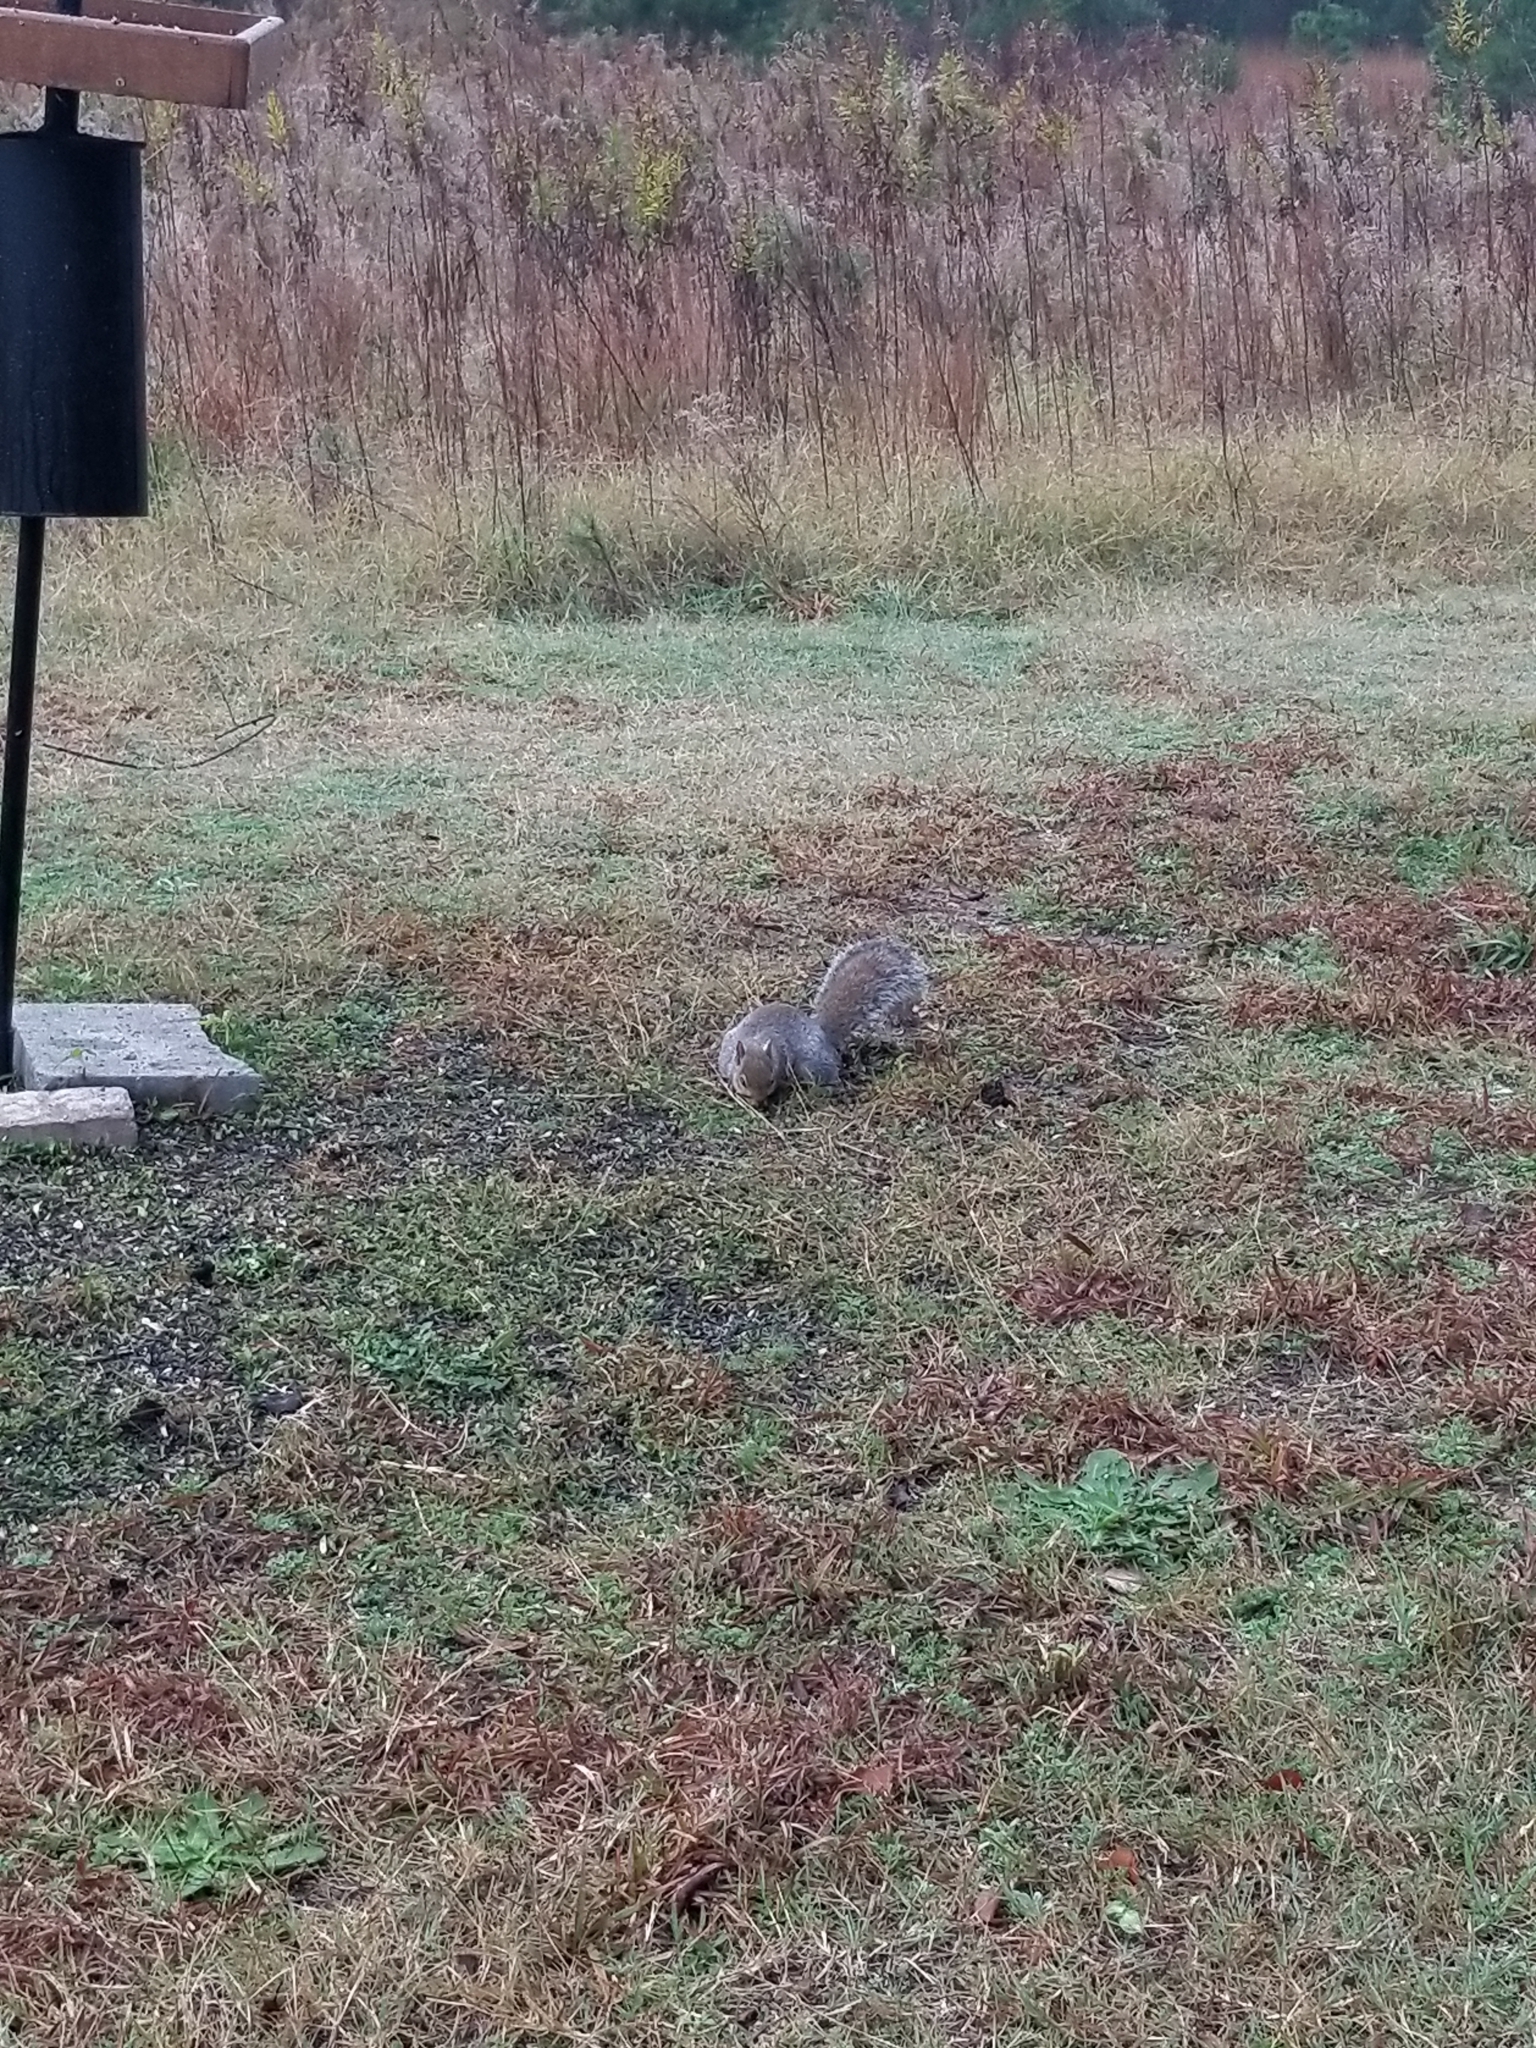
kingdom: Animalia
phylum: Chordata
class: Mammalia
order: Rodentia
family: Sciuridae
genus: Sciurus
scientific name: Sciurus carolinensis
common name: Eastern gray squirrel
